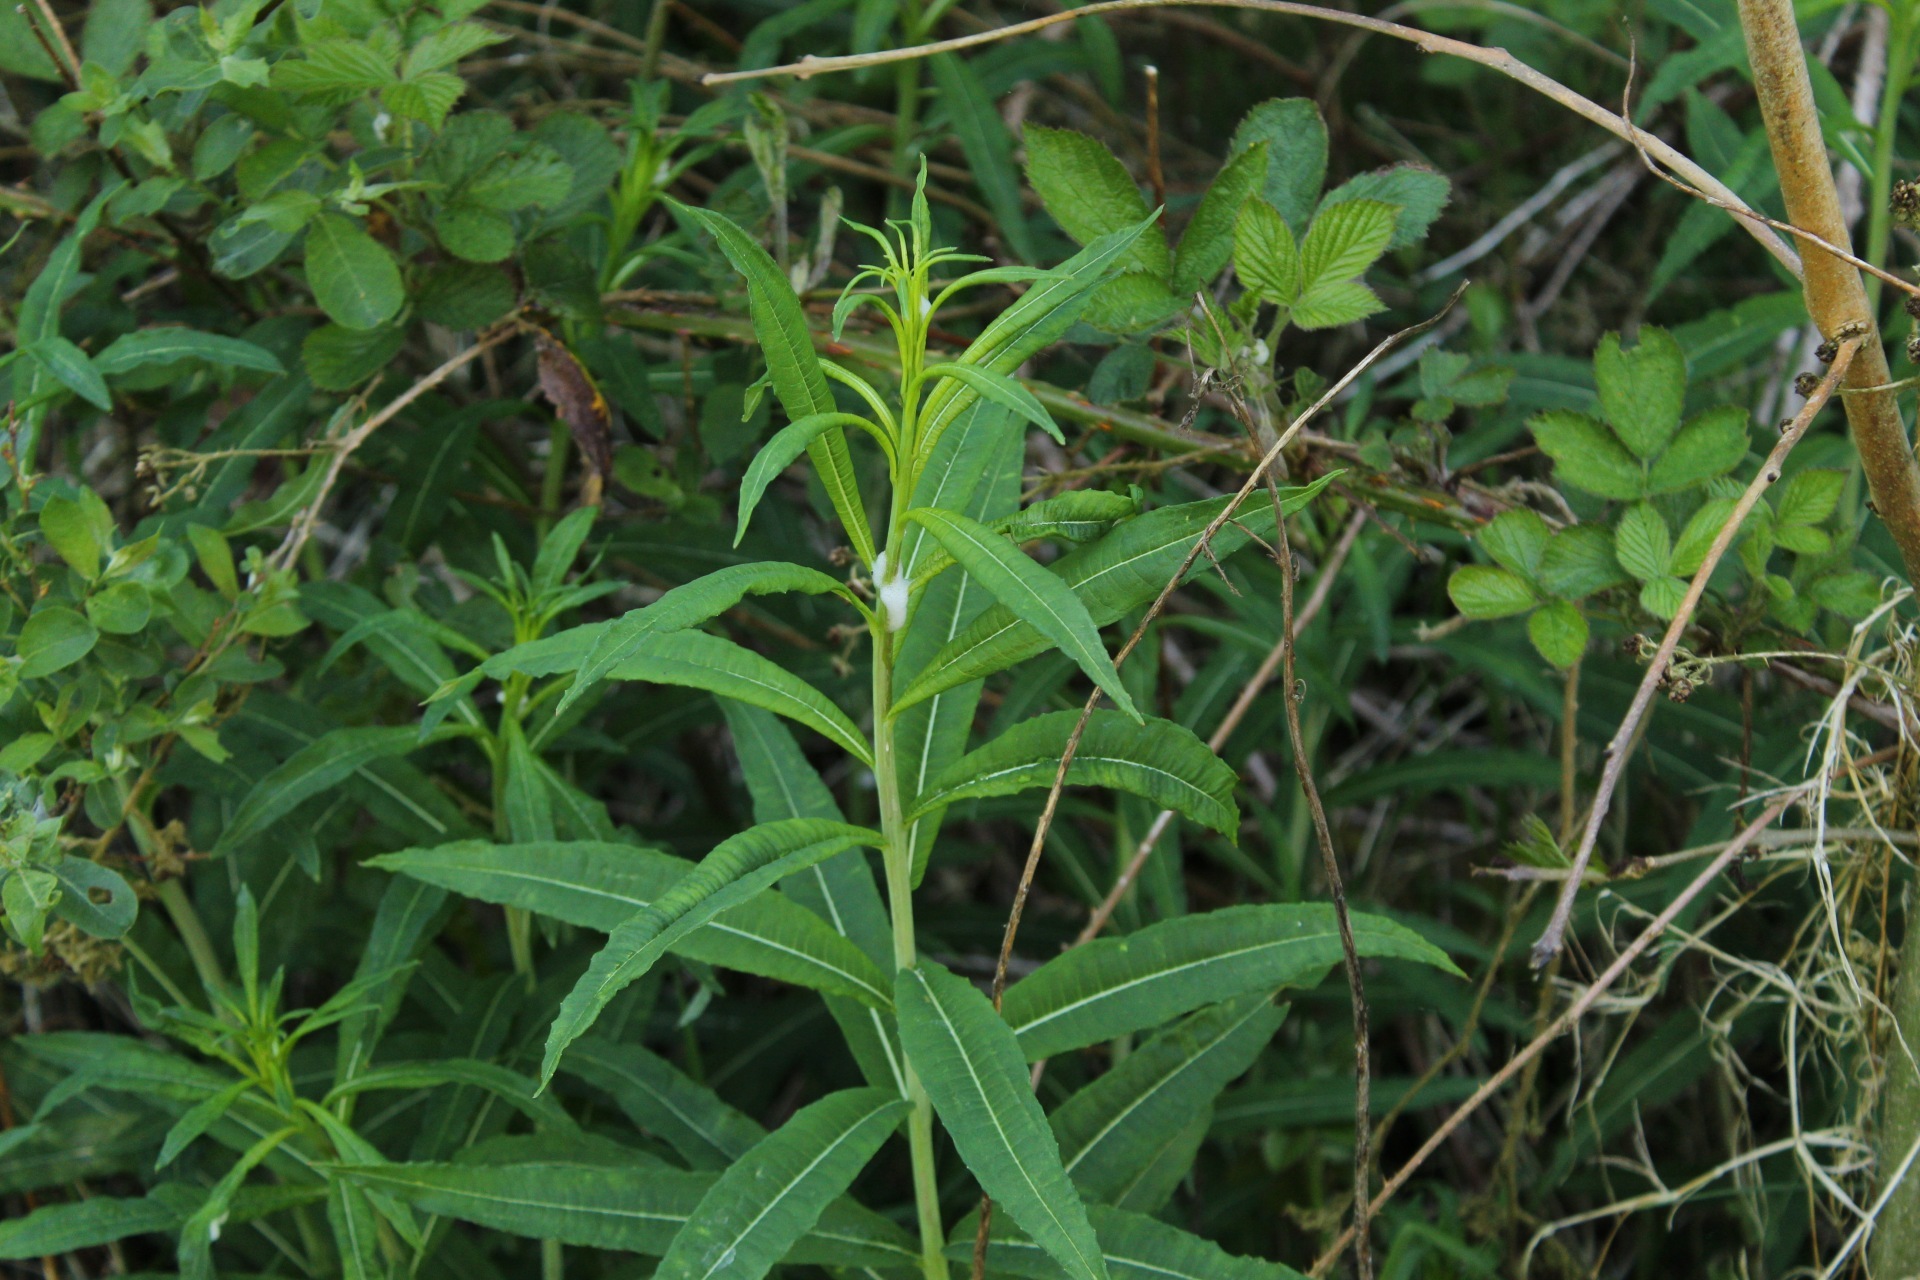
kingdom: Plantae
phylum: Tracheophyta
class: Magnoliopsida
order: Myrtales
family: Onagraceae
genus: Chamaenerion
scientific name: Chamaenerion angustifolium
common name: Fireweed
